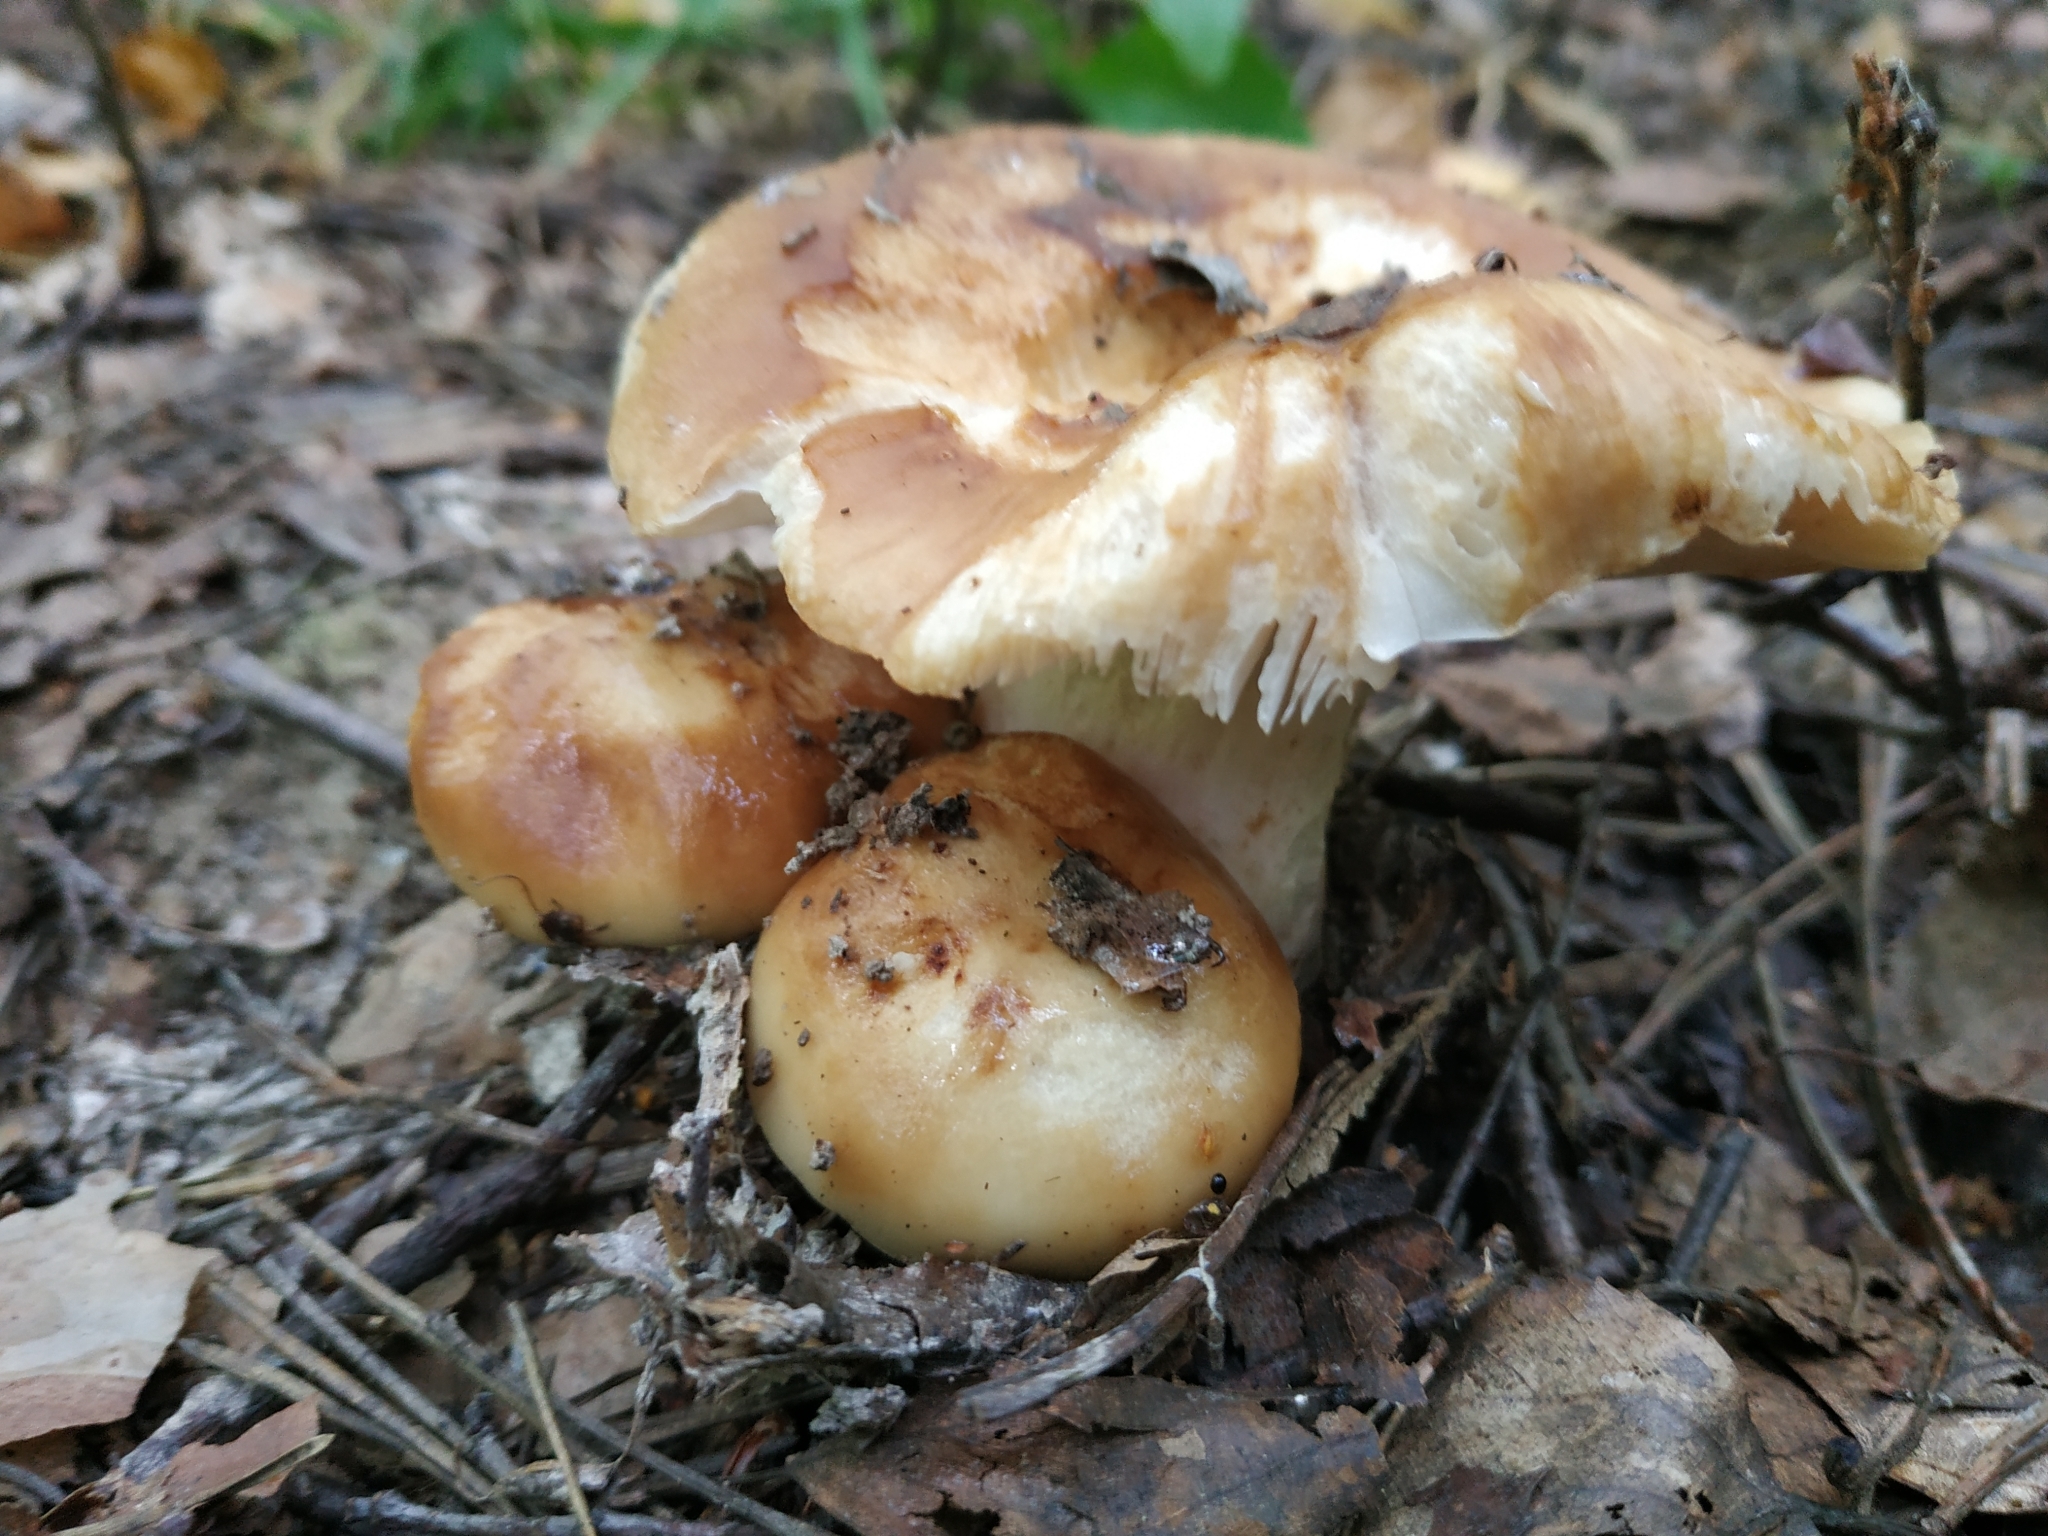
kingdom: Fungi
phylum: Basidiomycota
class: Agaricomycetes
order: Russulales
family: Russulaceae
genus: Russula
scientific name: Russula foetens
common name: Foetid russula
